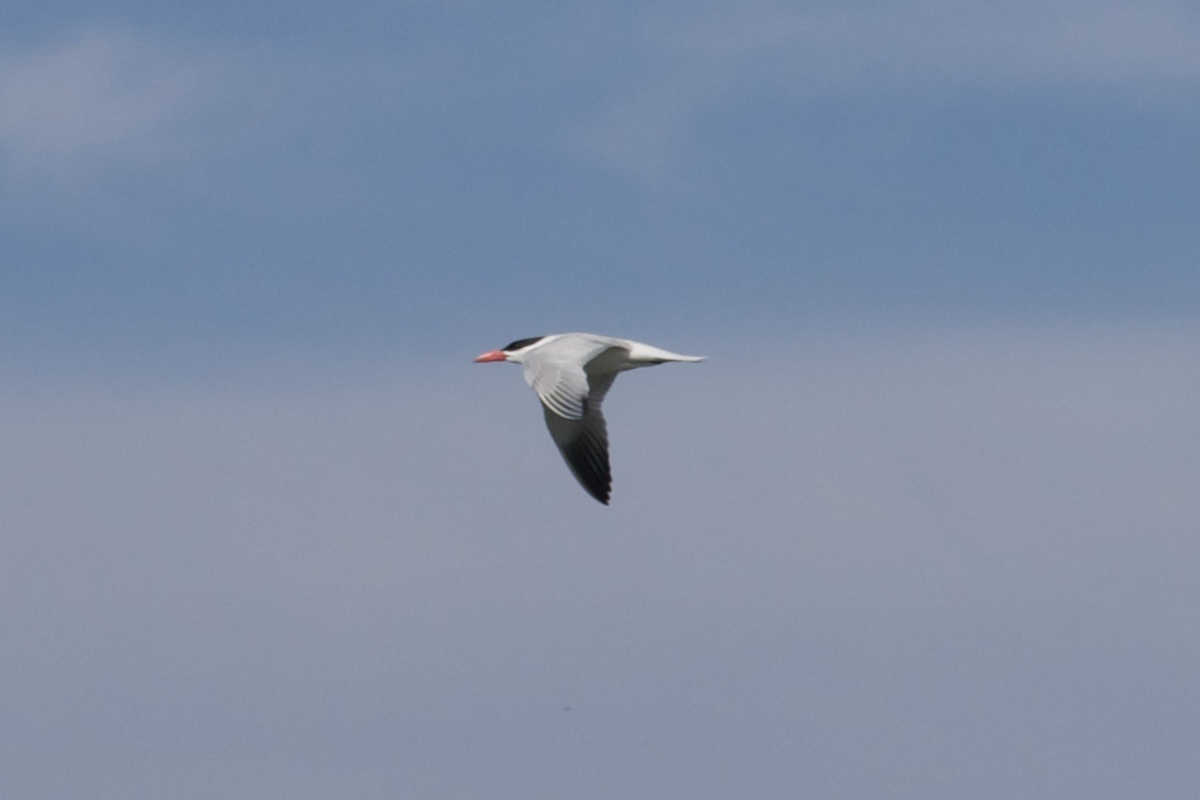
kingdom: Animalia
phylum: Chordata
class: Aves
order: Charadriiformes
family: Laridae
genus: Hydroprogne
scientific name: Hydroprogne caspia
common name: Caspian tern
